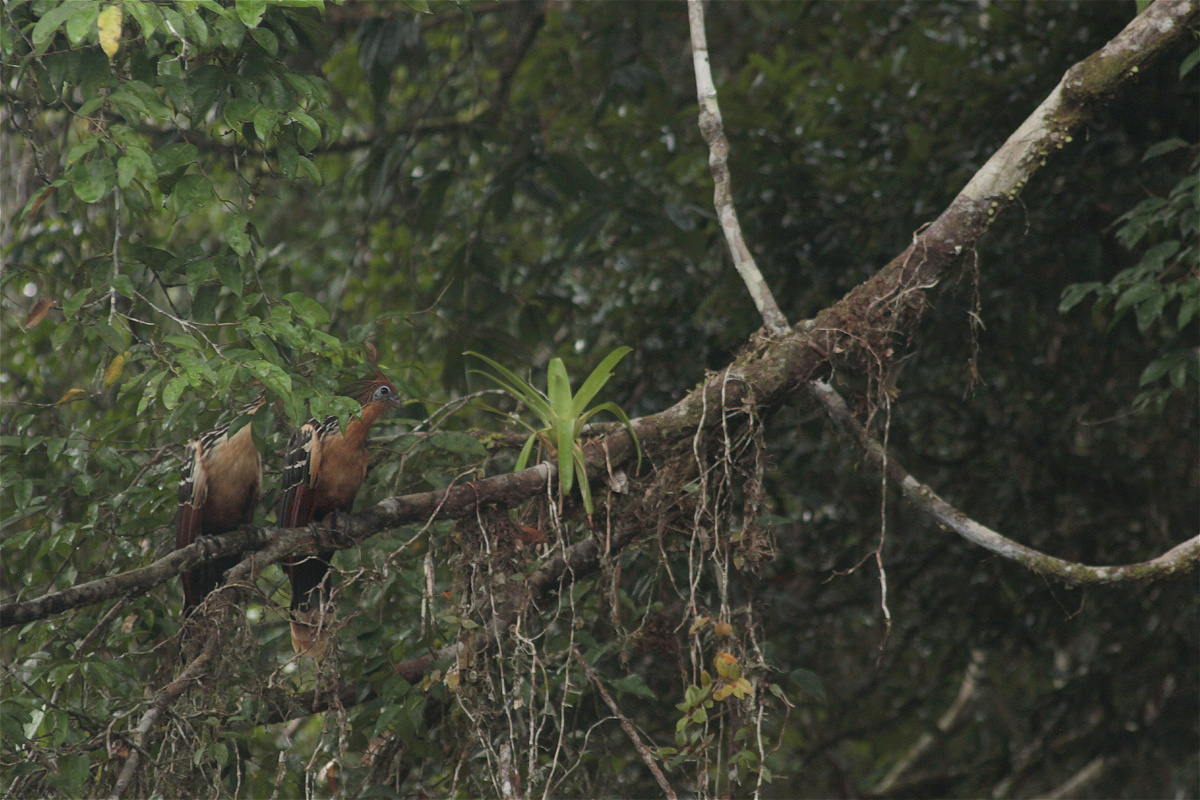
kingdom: Animalia
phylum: Chordata
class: Aves
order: Opisthocomiformes
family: Opisthocomidae
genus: Opisthocomus
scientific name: Opisthocomus hoazin
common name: Hoatzin
